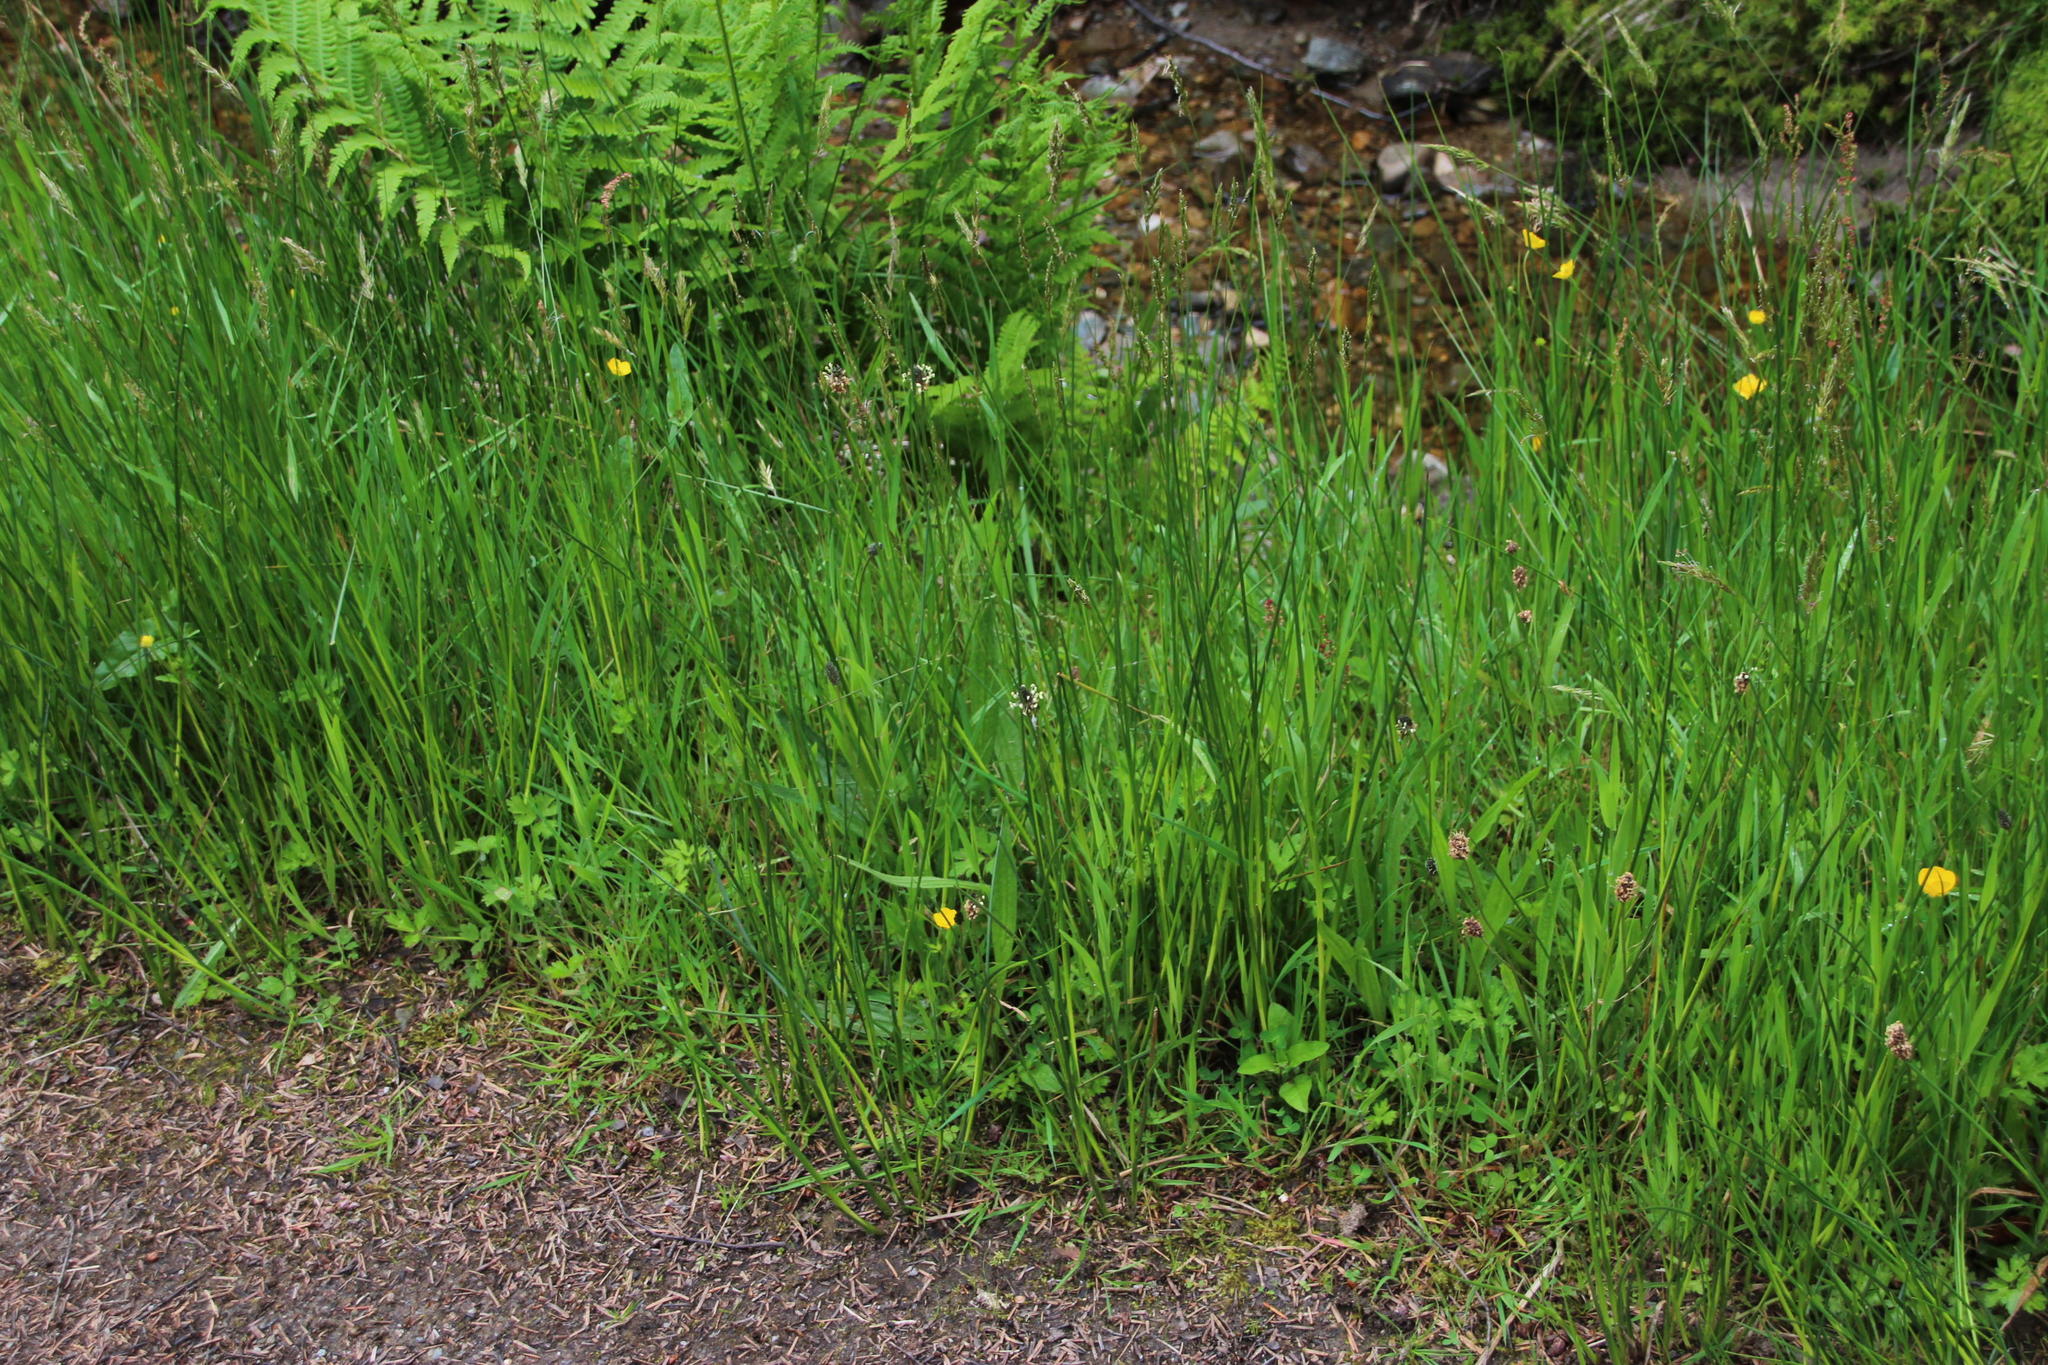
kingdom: Plantae
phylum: Tracheophyta
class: Magnoliopsida
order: Lamiales
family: Plantaginaceae
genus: Plantago
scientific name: Plantago lanceolata
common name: Ribwort plantain
